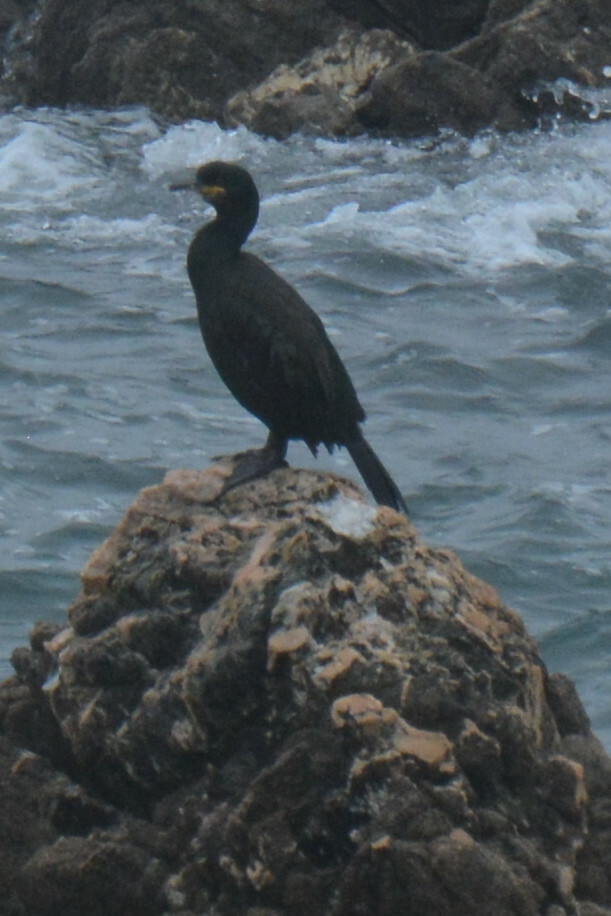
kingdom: Animalia
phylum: Chordata
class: Aves
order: Suliformes
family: Phalacrocoracidae
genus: Phalacrocorax
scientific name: Phalacrocorax aristotelis
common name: European shag
